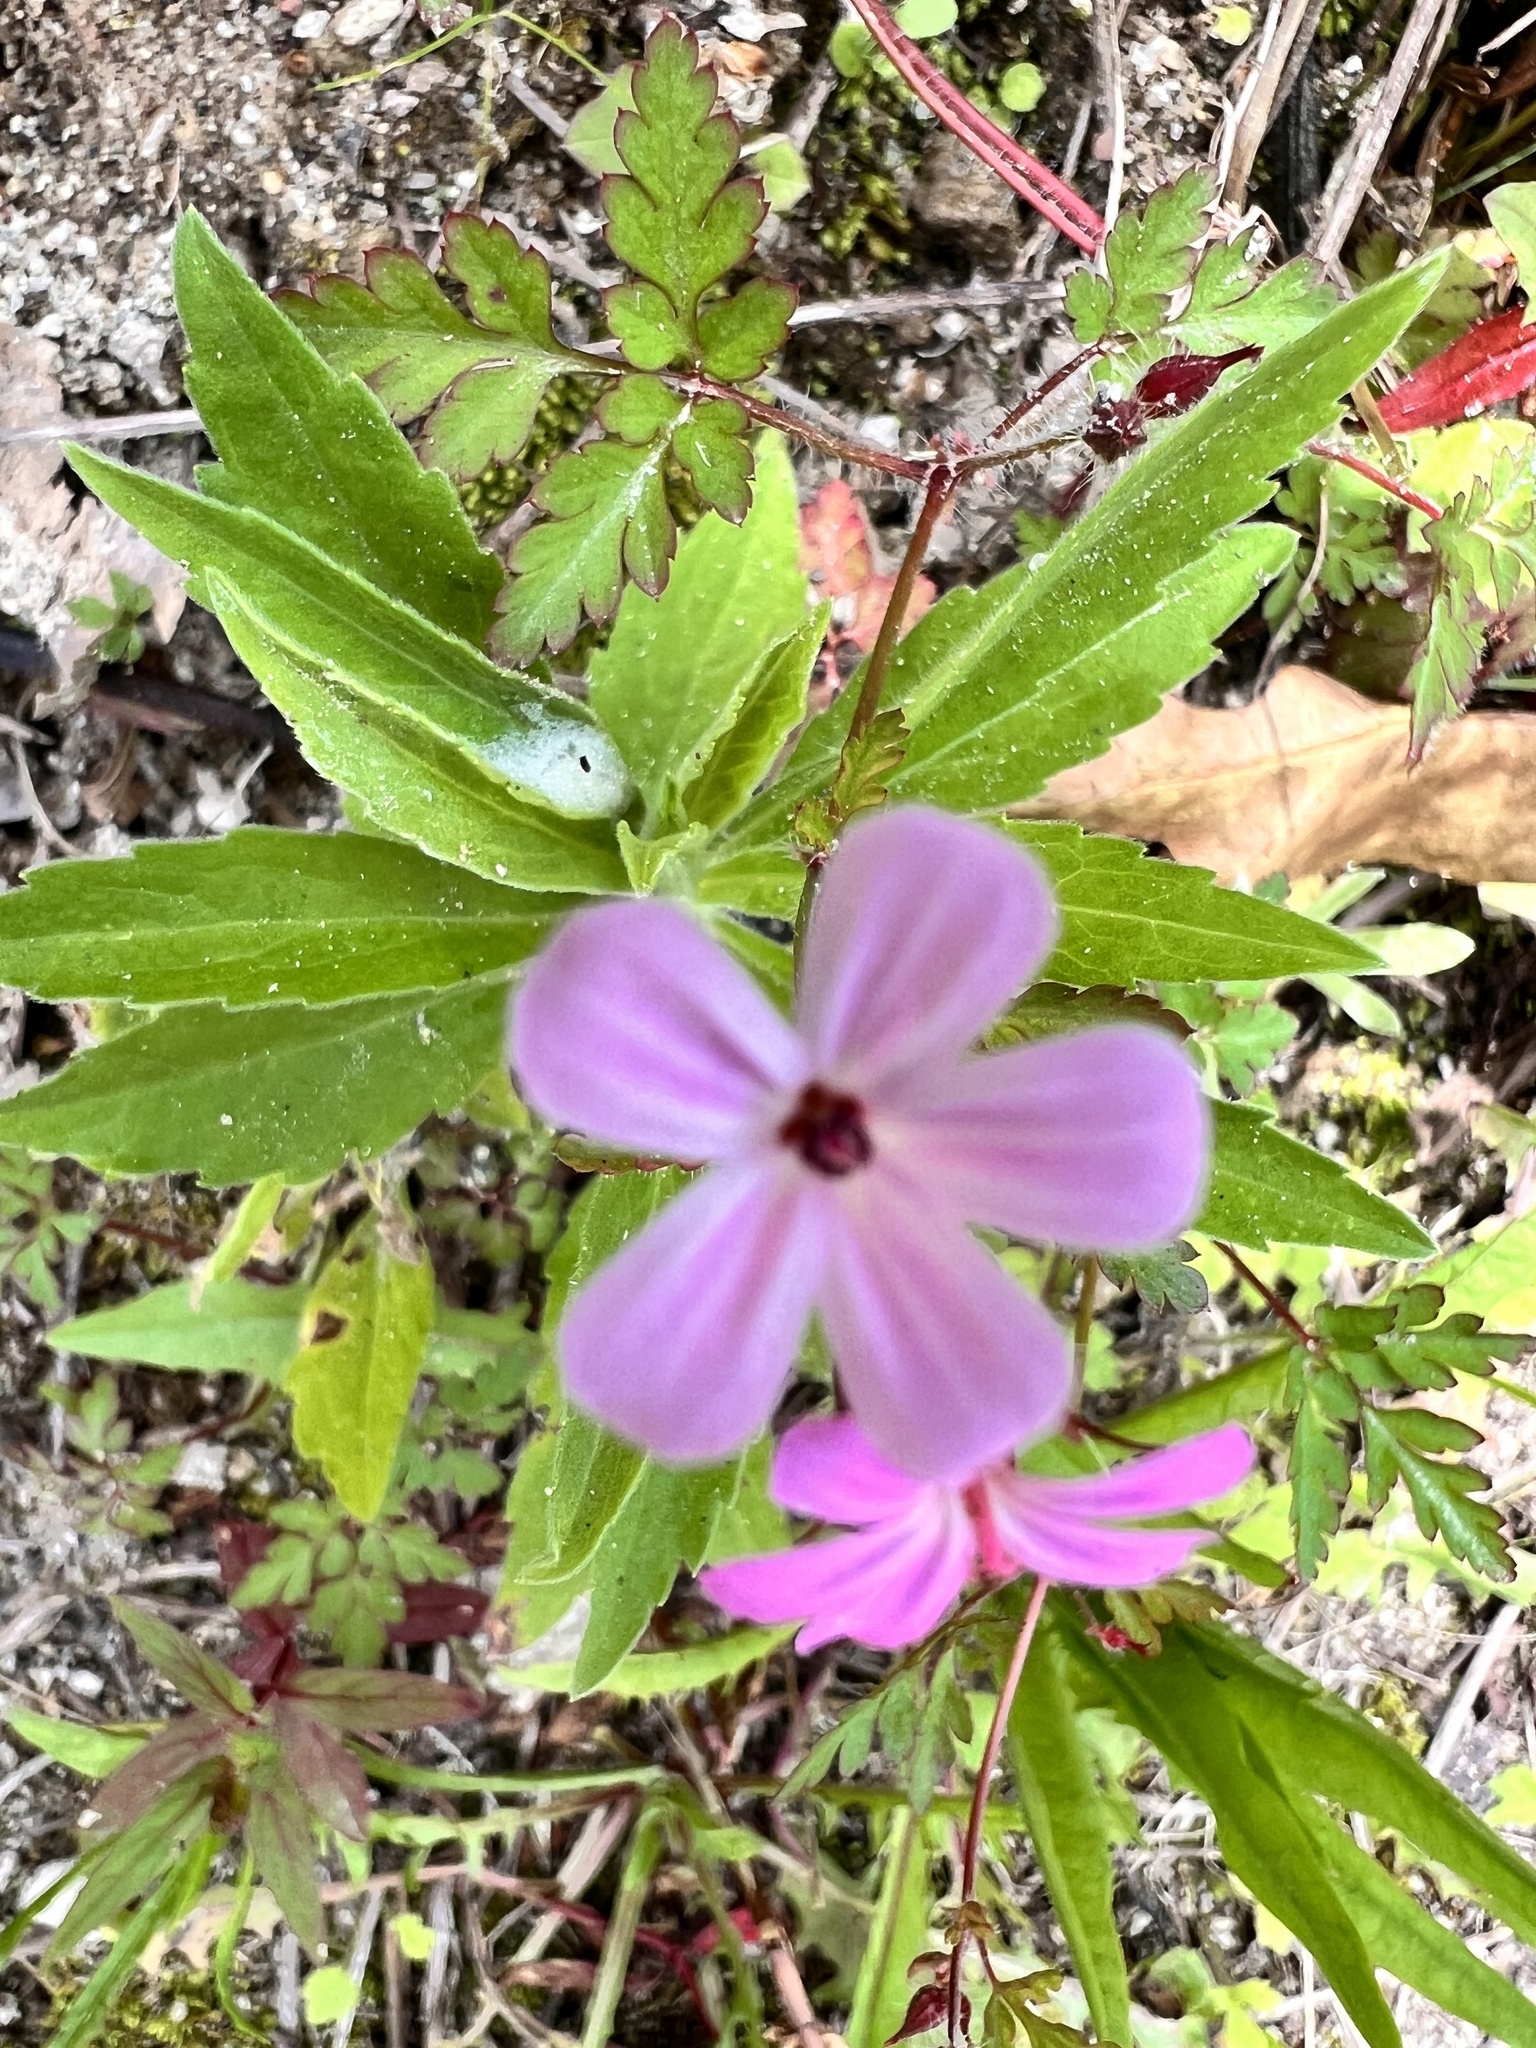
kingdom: Plantae
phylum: Tracheophyta
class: Magnoliopsida
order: Geraniales
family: Geraniaceae
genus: Geranium
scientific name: Geranium robertianum
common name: Herb-robert
